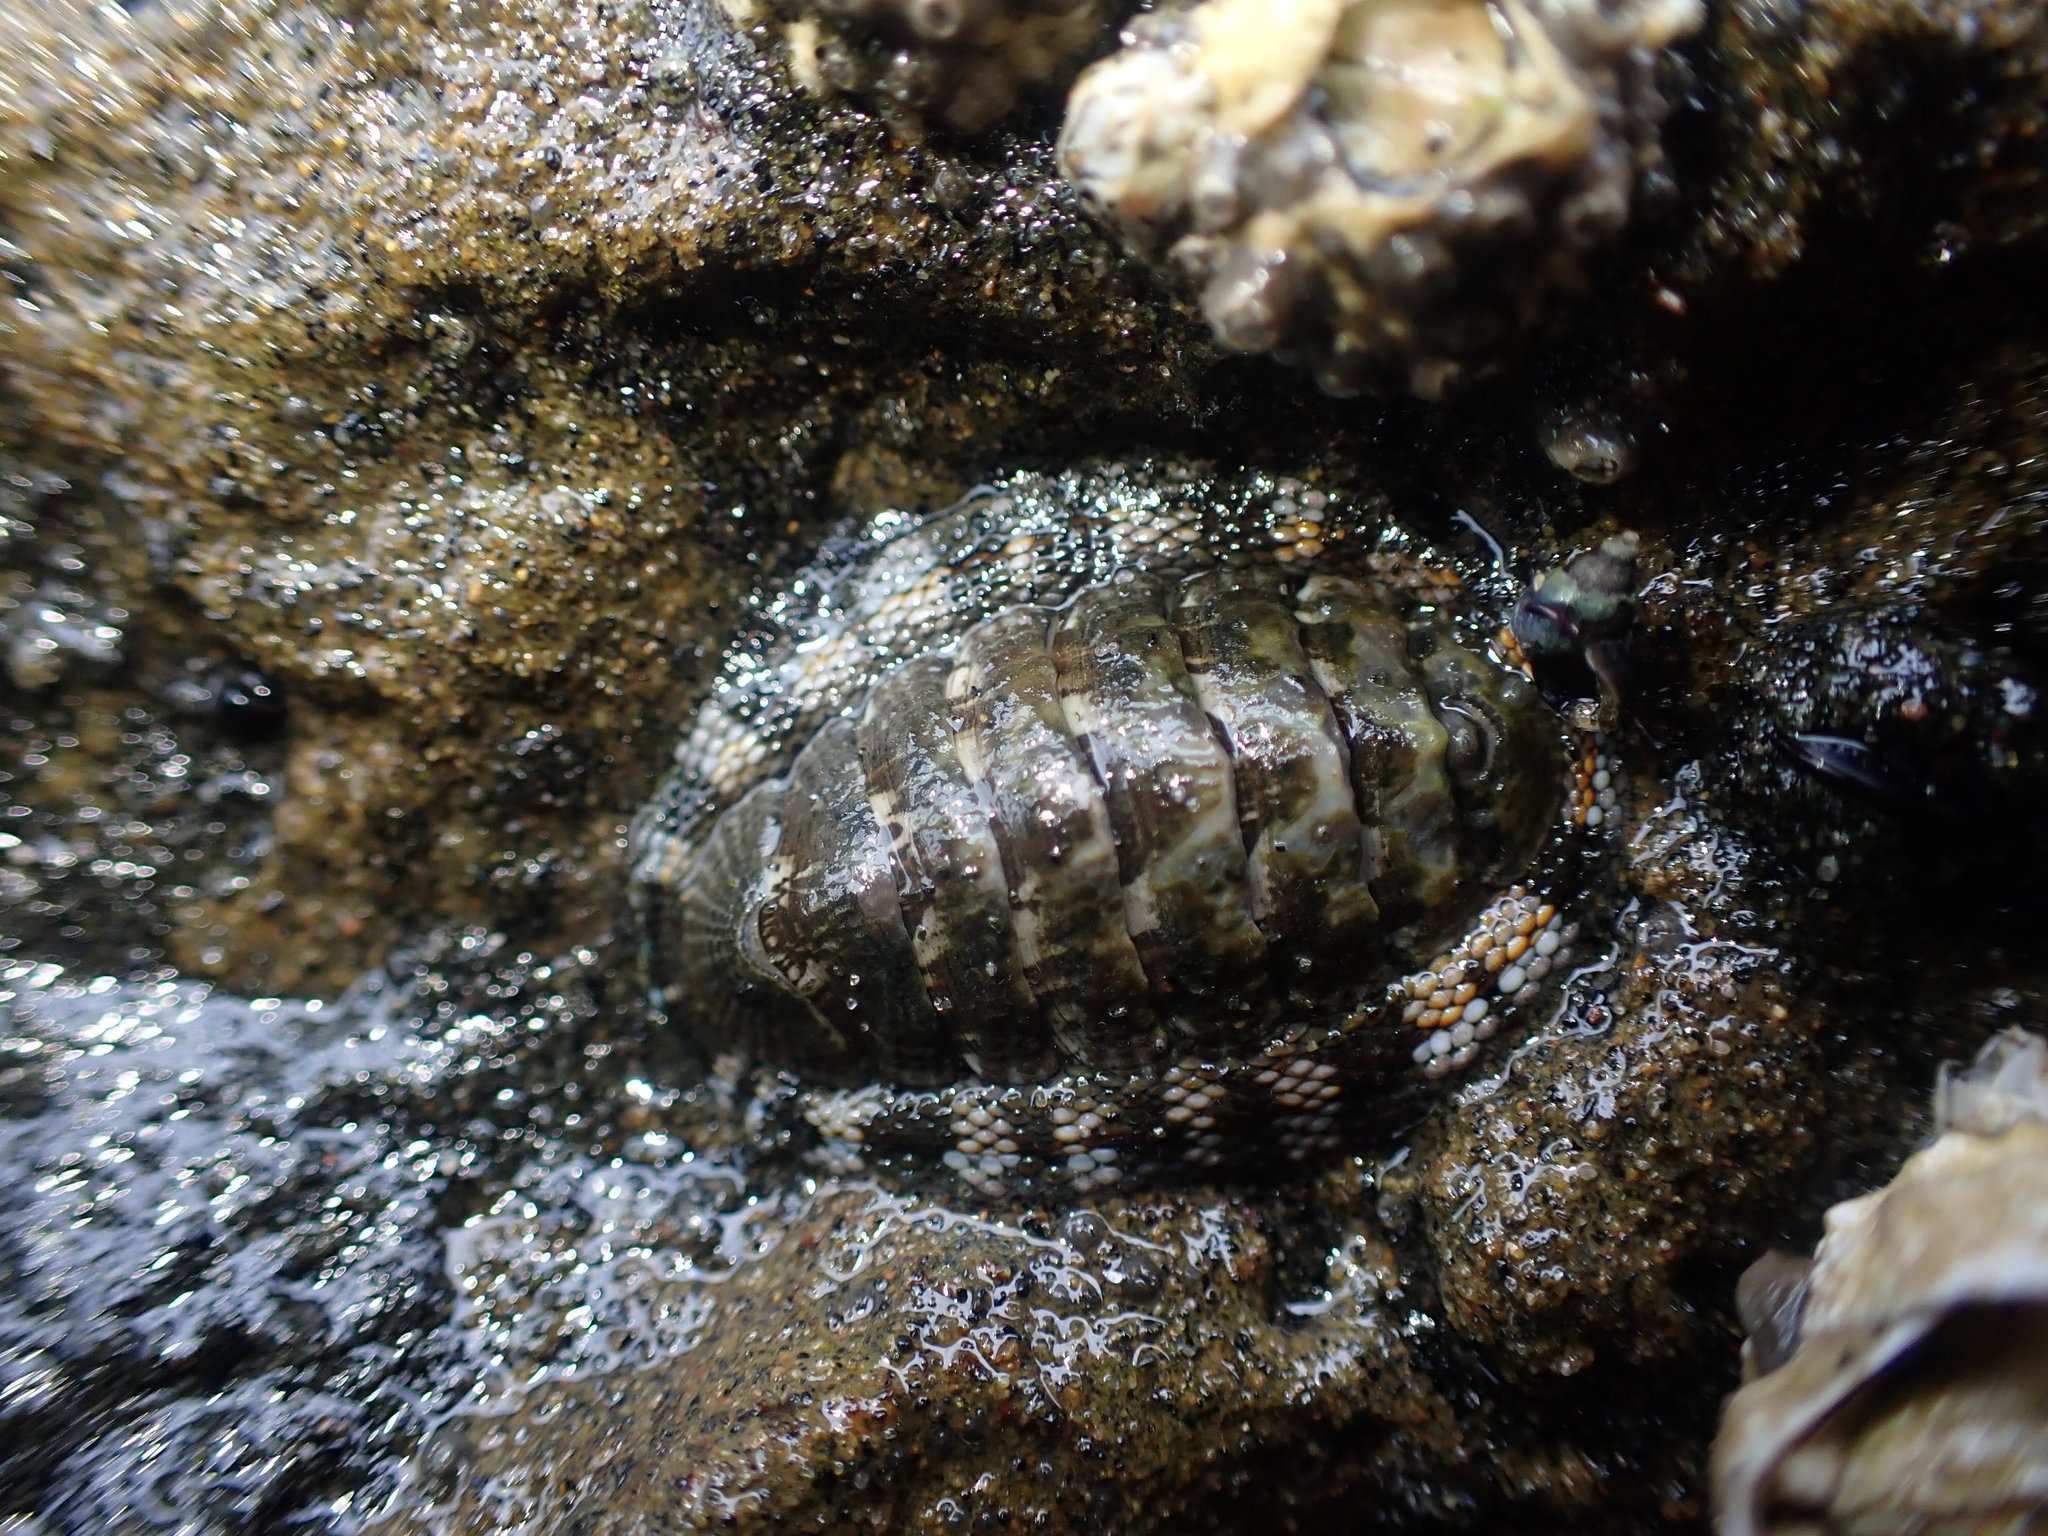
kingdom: Animalia
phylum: Mollusca
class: Polyplacophora
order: Chitonida
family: Chitonidae
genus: Sypharochiton
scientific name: Sypharochiton sinclairi
